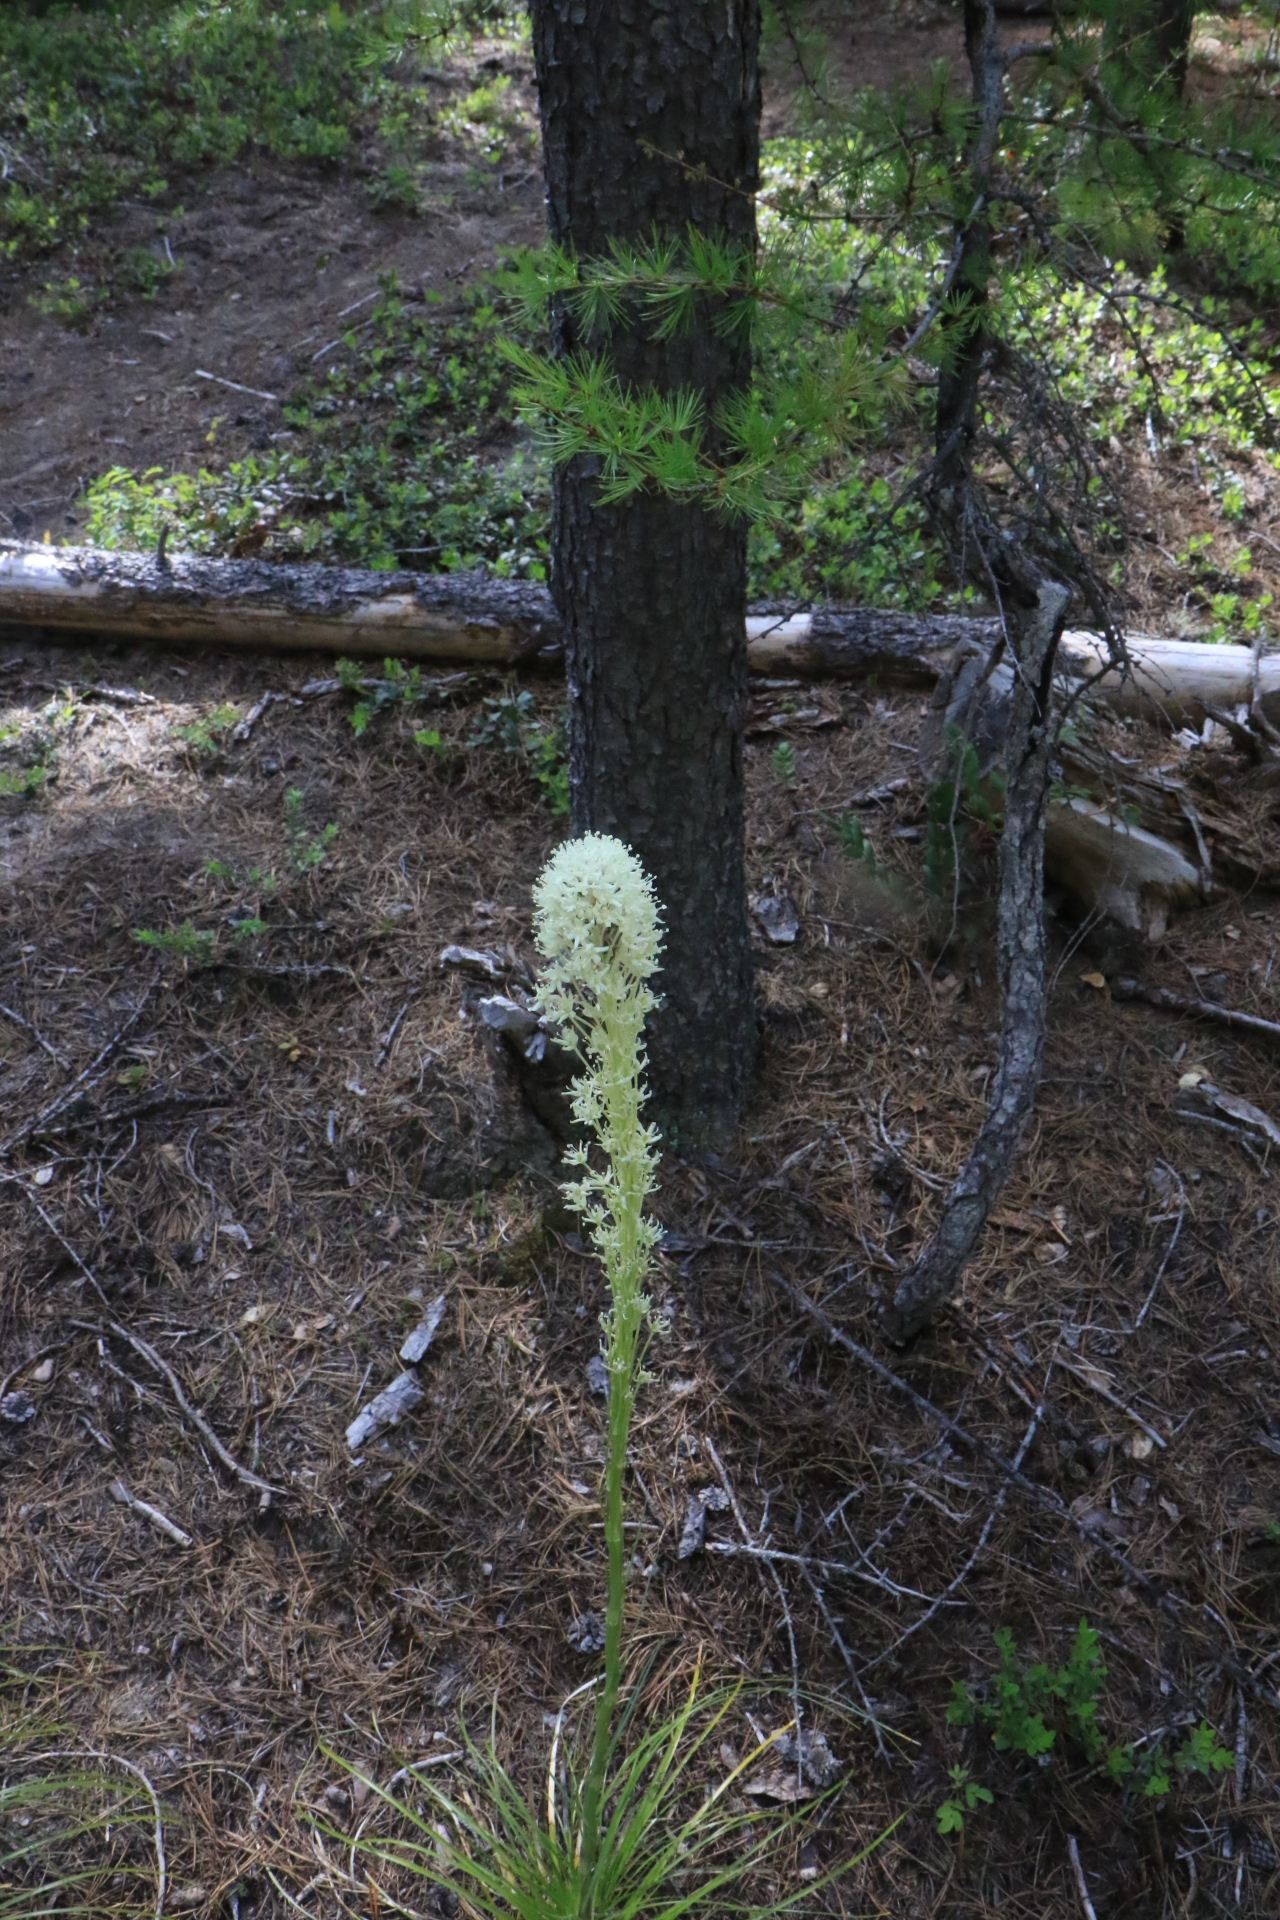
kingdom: Plantae
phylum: Tracheophyta
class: Liliopsida
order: Liliales
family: Melanthiaceae
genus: Xerophyllum
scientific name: Xerophyllum tenax
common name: Bear-grass
